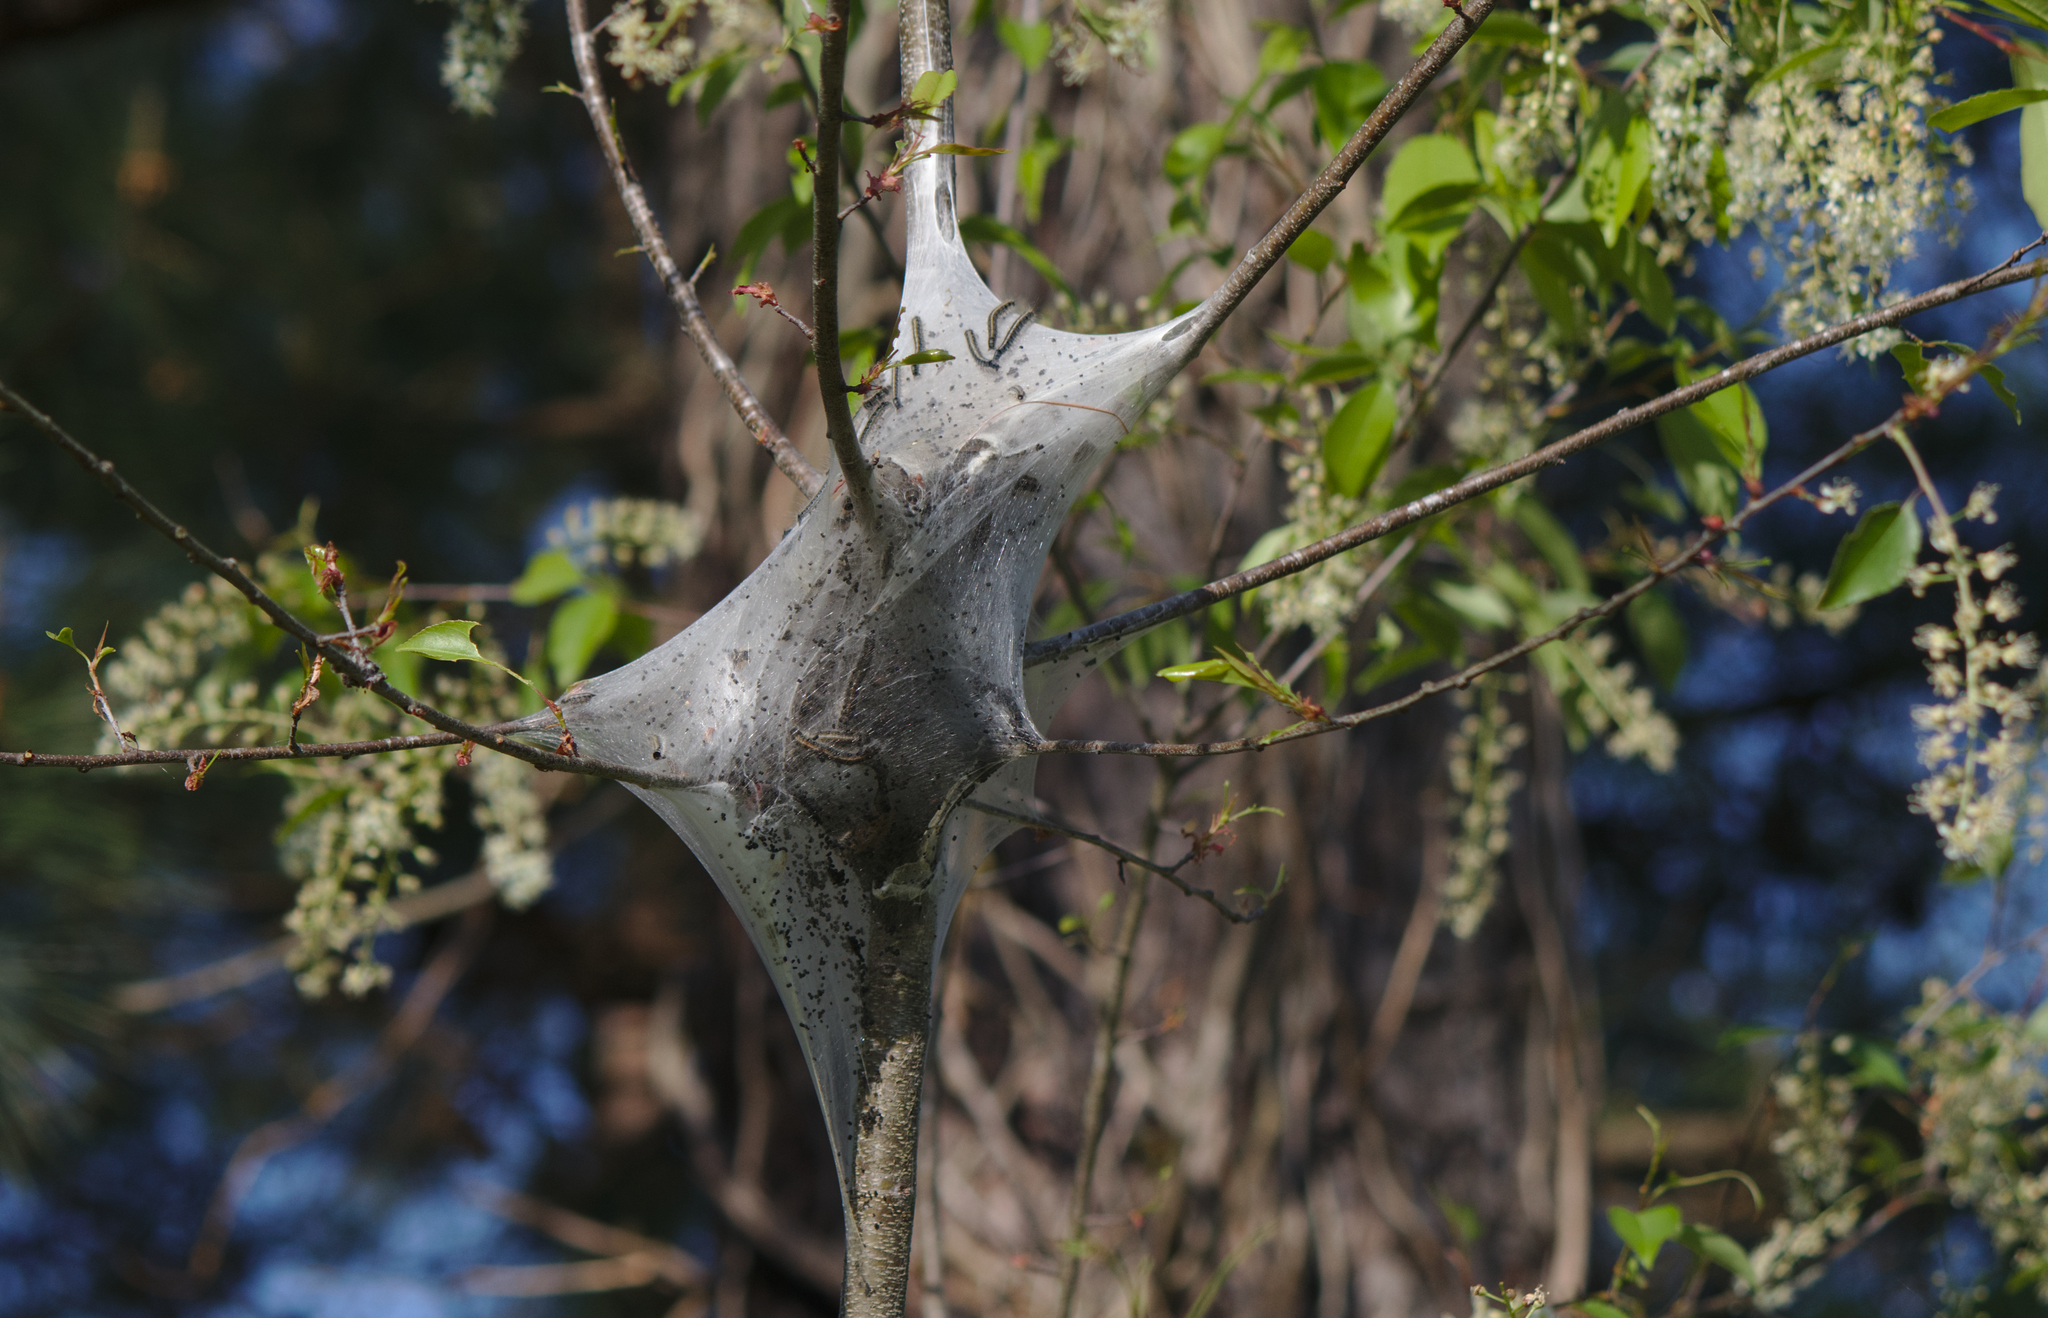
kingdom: Animalia
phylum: Arthropoda
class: Insecta
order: Lepidoptera
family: Lasiocampidae
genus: Malacosoma
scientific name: Malacosoma americana
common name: Eastern tent caterpillar moth
